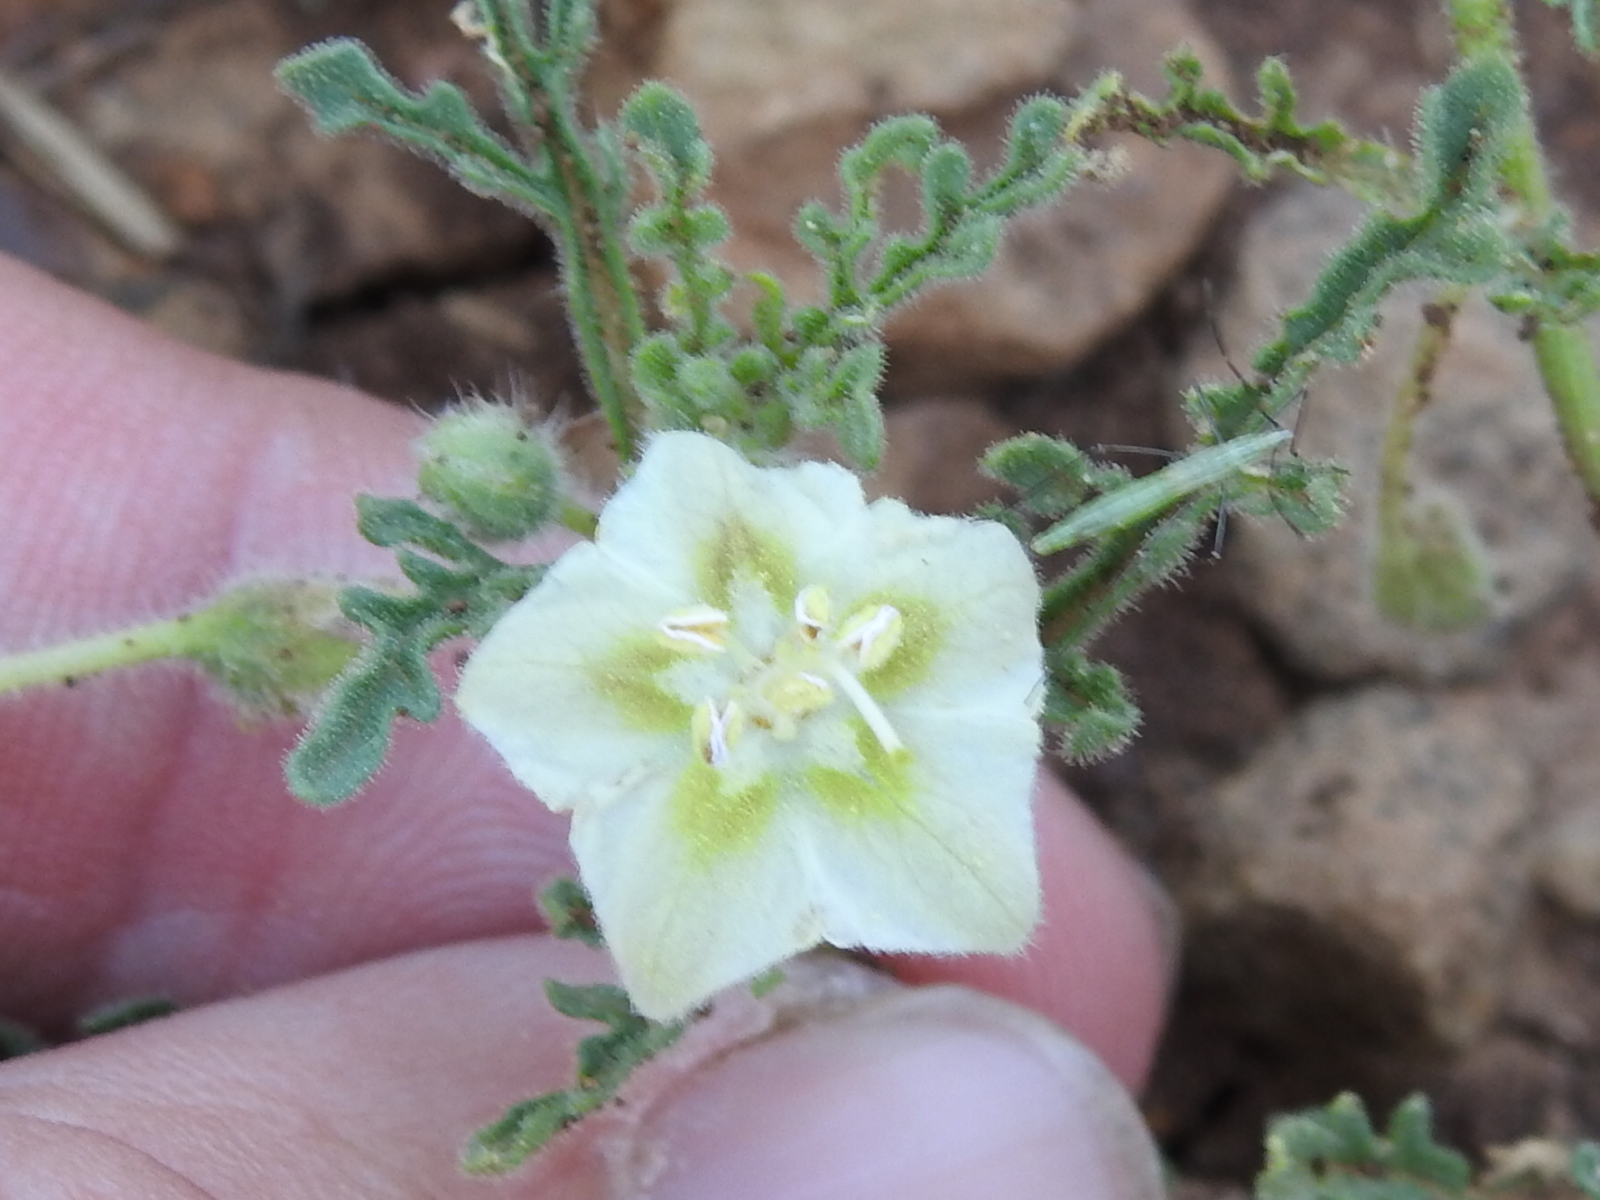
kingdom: Plantae
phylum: Tracheophyta
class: Magnoliopsida
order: Solanales
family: Solanaceae
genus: Chamaesaracha
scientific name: Chamaesaracha coniodes
